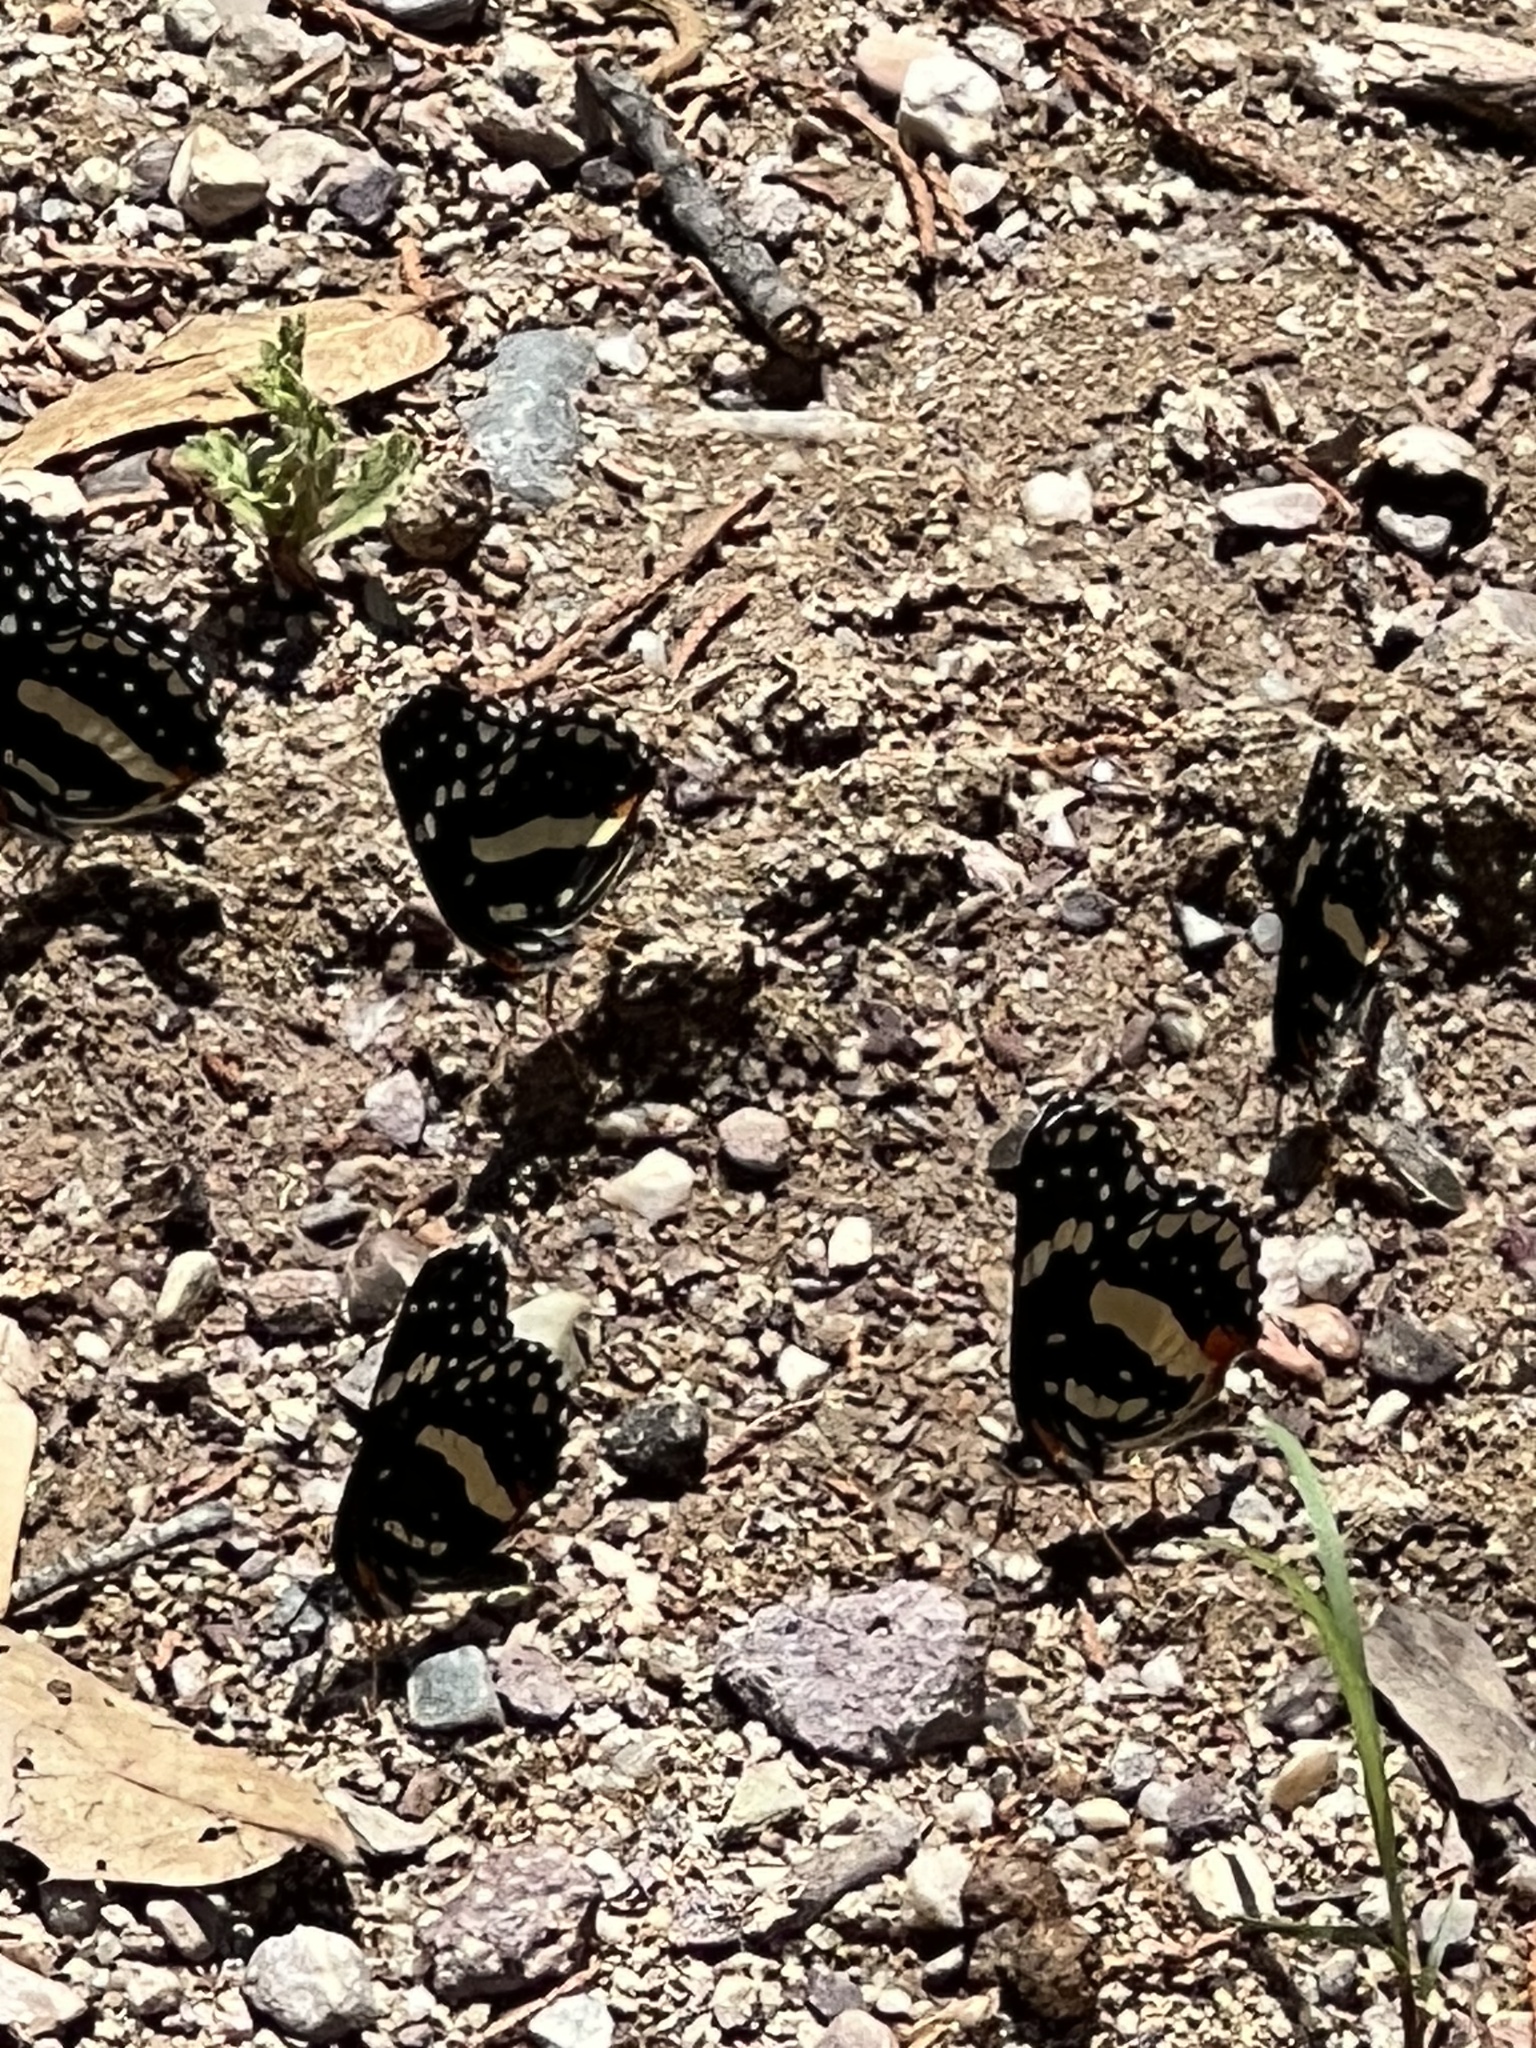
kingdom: Animalia
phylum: Arthropoda
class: Insecta
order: Lepidoptera
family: Nymphalidae
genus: Chlosyne
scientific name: Chlosyne lacinia
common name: Bordered patch
